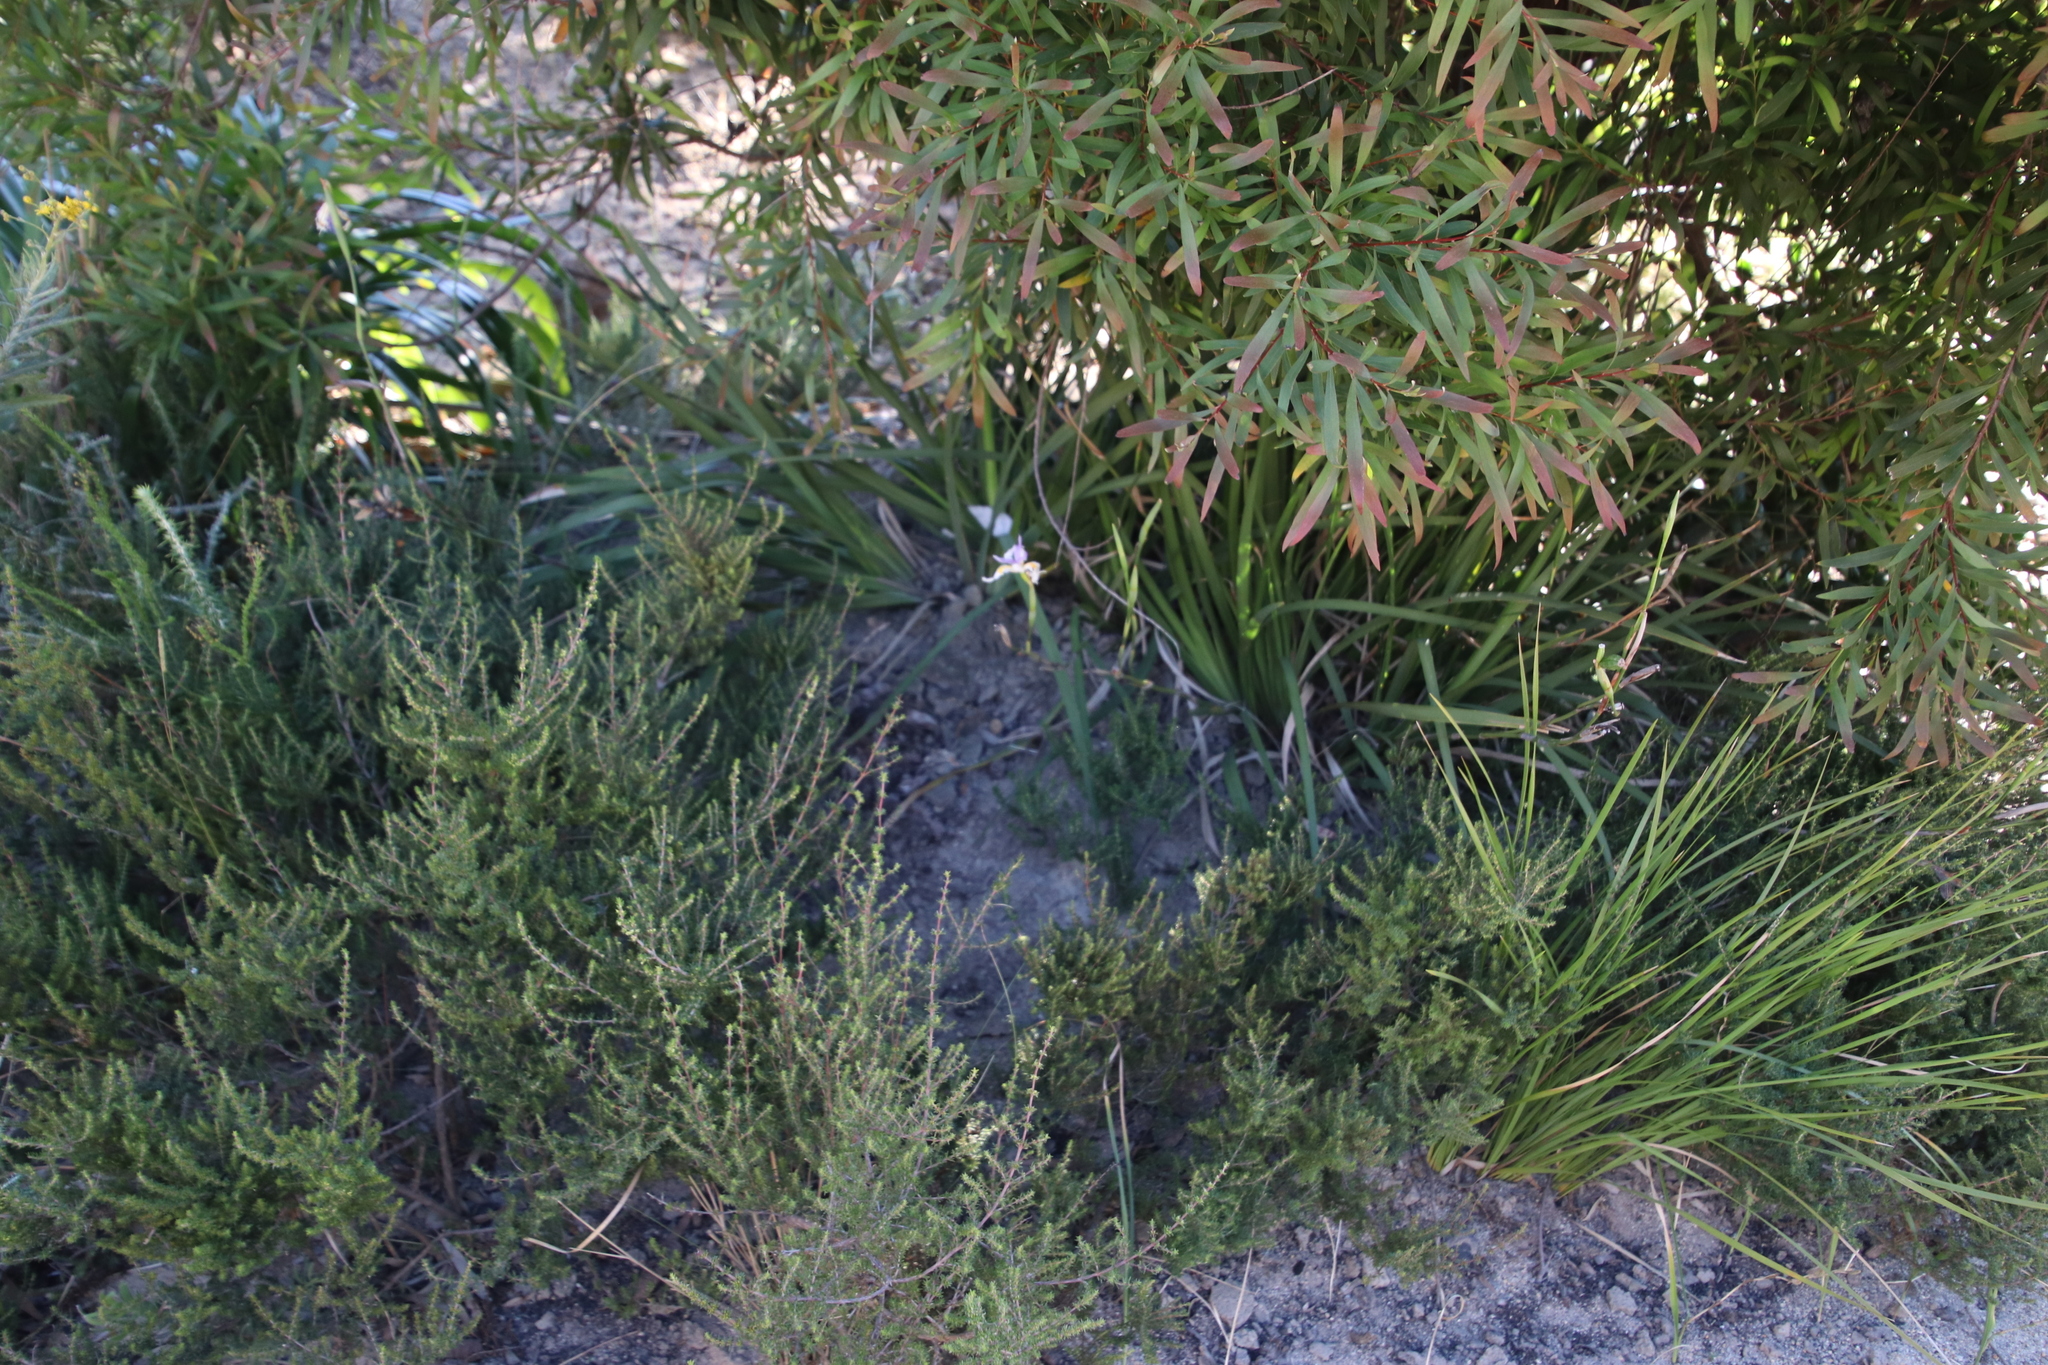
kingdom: Plantae
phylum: Tracheophyta
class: Liliopsida
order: Asparagales
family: Iridaceae
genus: Dietes
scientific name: Dietes grandiflora
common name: Wild iris
